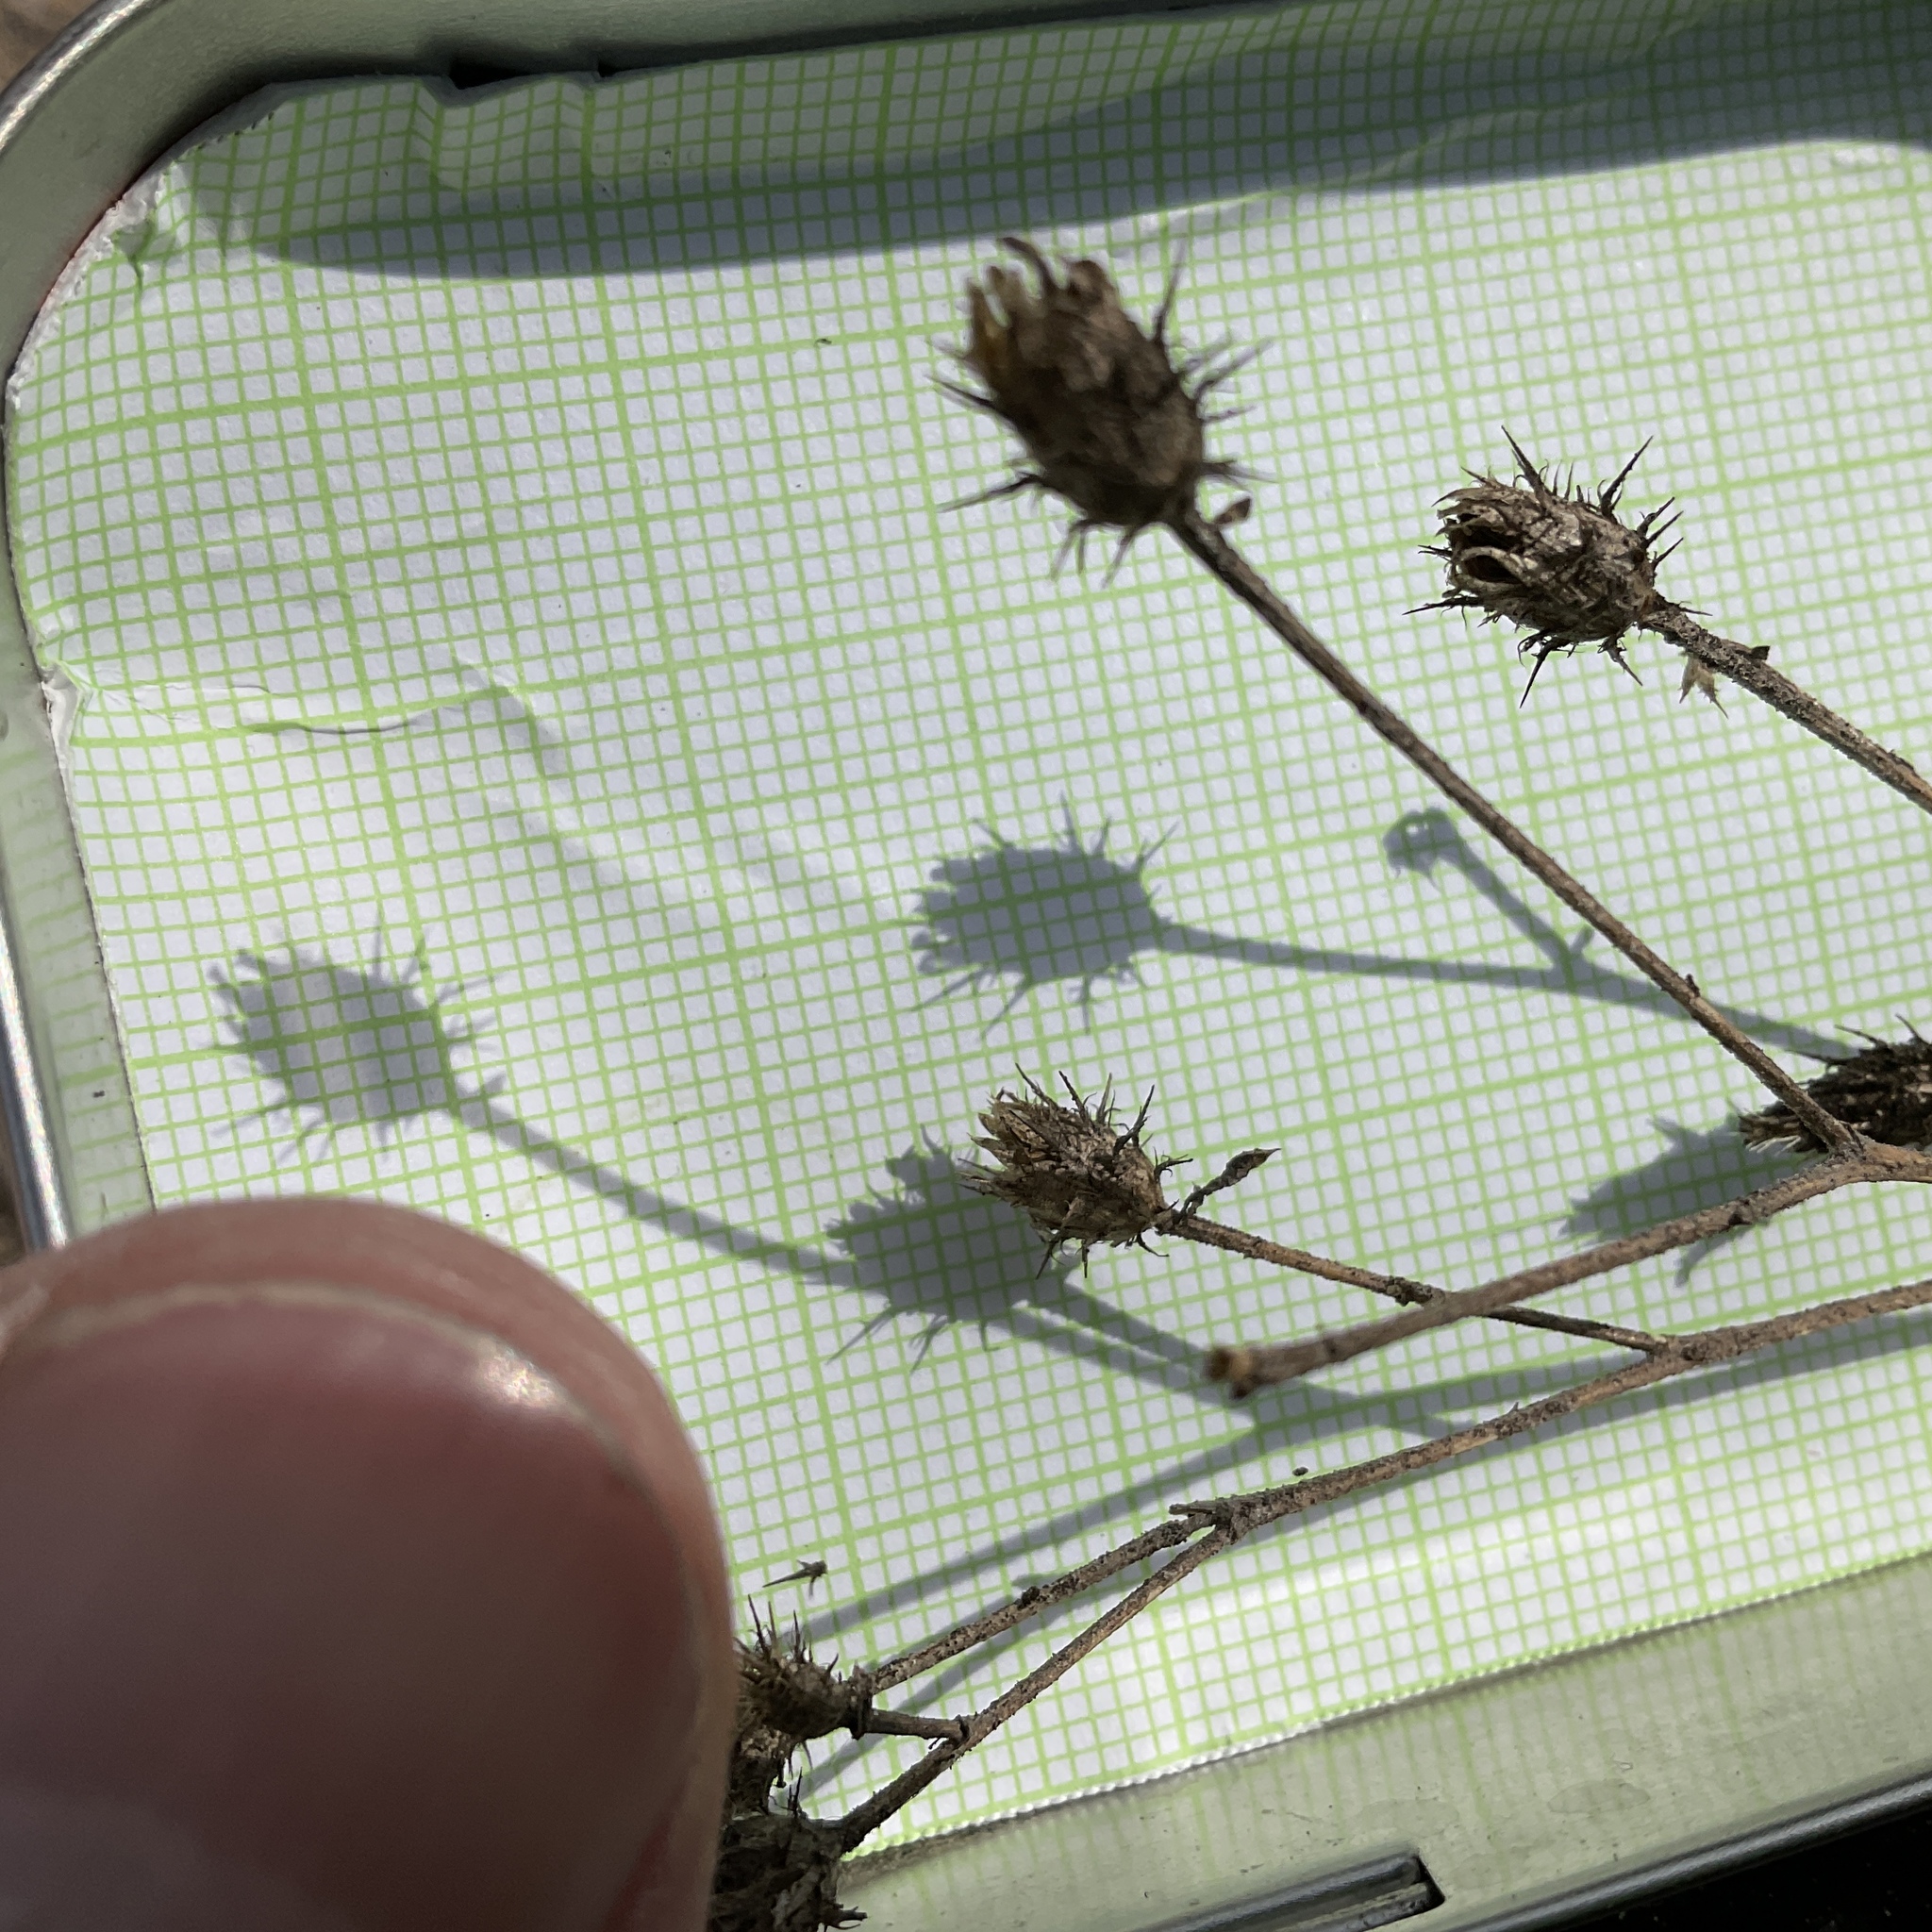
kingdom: Plantae
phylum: Tracheophyta
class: Magnoliopsida
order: Asterales
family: Asteraceae
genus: Centaurea
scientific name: Centaurea diffusa
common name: Diffuse knapweed
